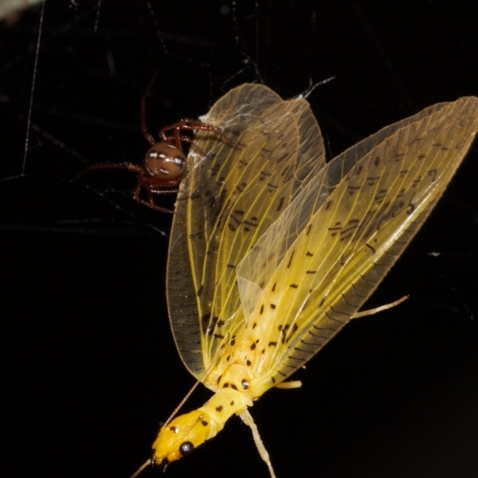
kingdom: Animalia
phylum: Arthropoda
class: Arachnida
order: Araneae
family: Theridiidae
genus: Nesticodes
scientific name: Nesticodes rufipes
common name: Cobweb spiders
